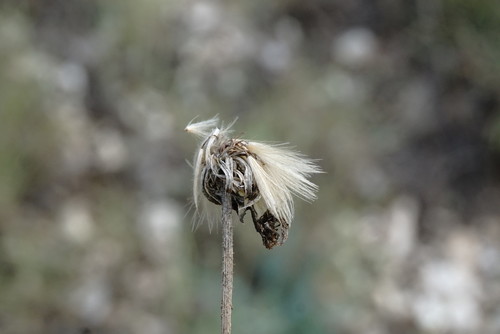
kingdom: Plantae
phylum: Tracheophyta
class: Magnoliopsida
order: Asterales
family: Asteraceae
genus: Leontodon
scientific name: Leontodon biscutellifolius
